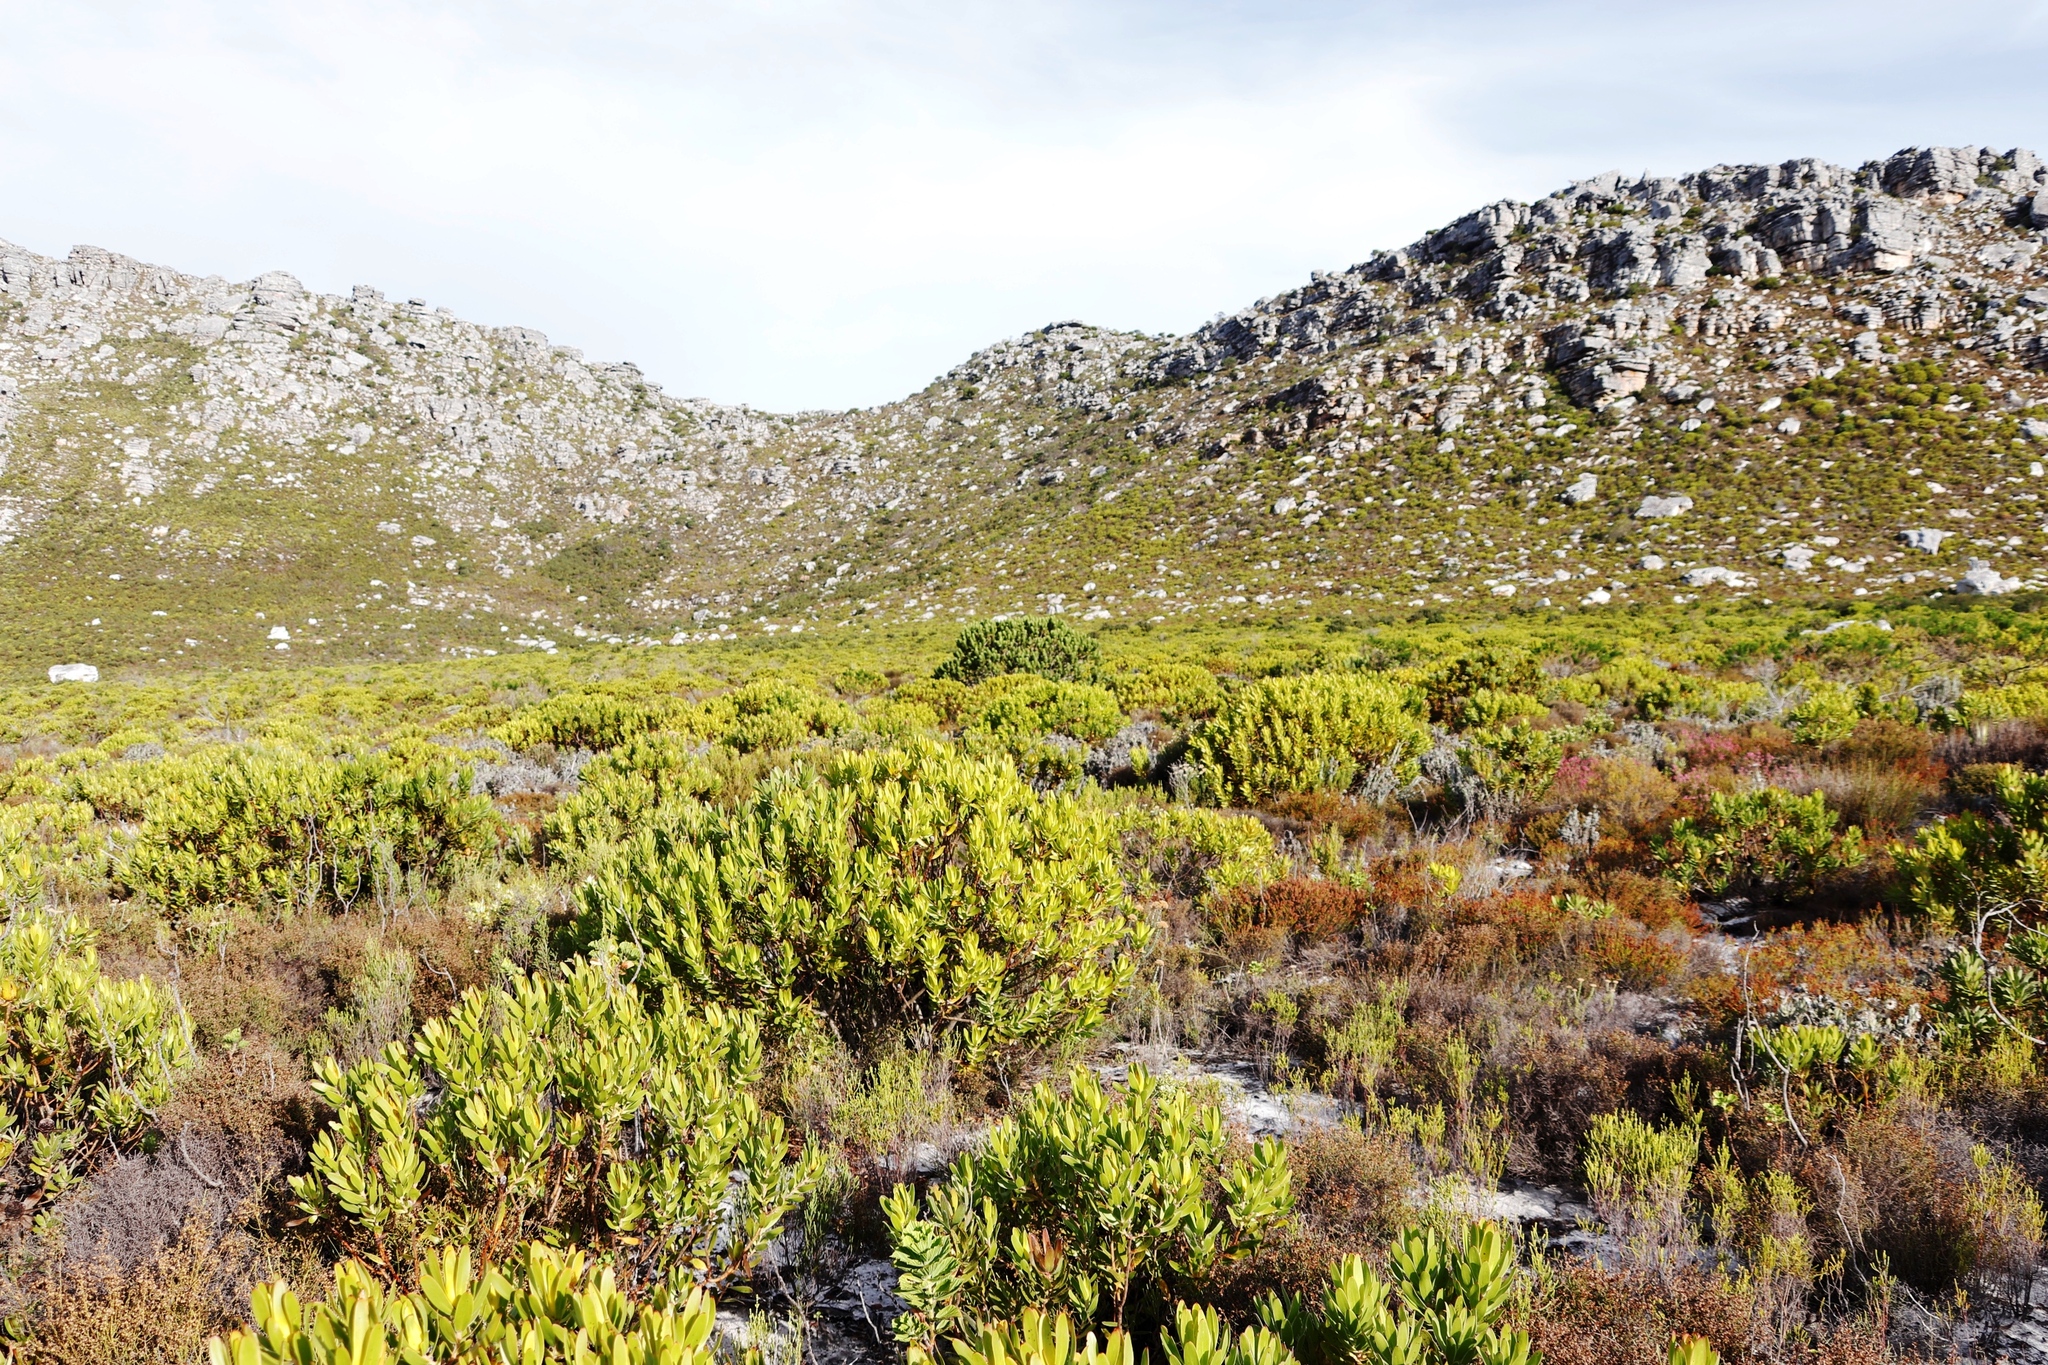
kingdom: Plantae
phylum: Tracheophyta
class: Magnoliopsida
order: Proteales
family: Proteaceae
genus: Leucospermum
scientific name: Leucospermum conocarpodendron
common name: Tree pincushion
